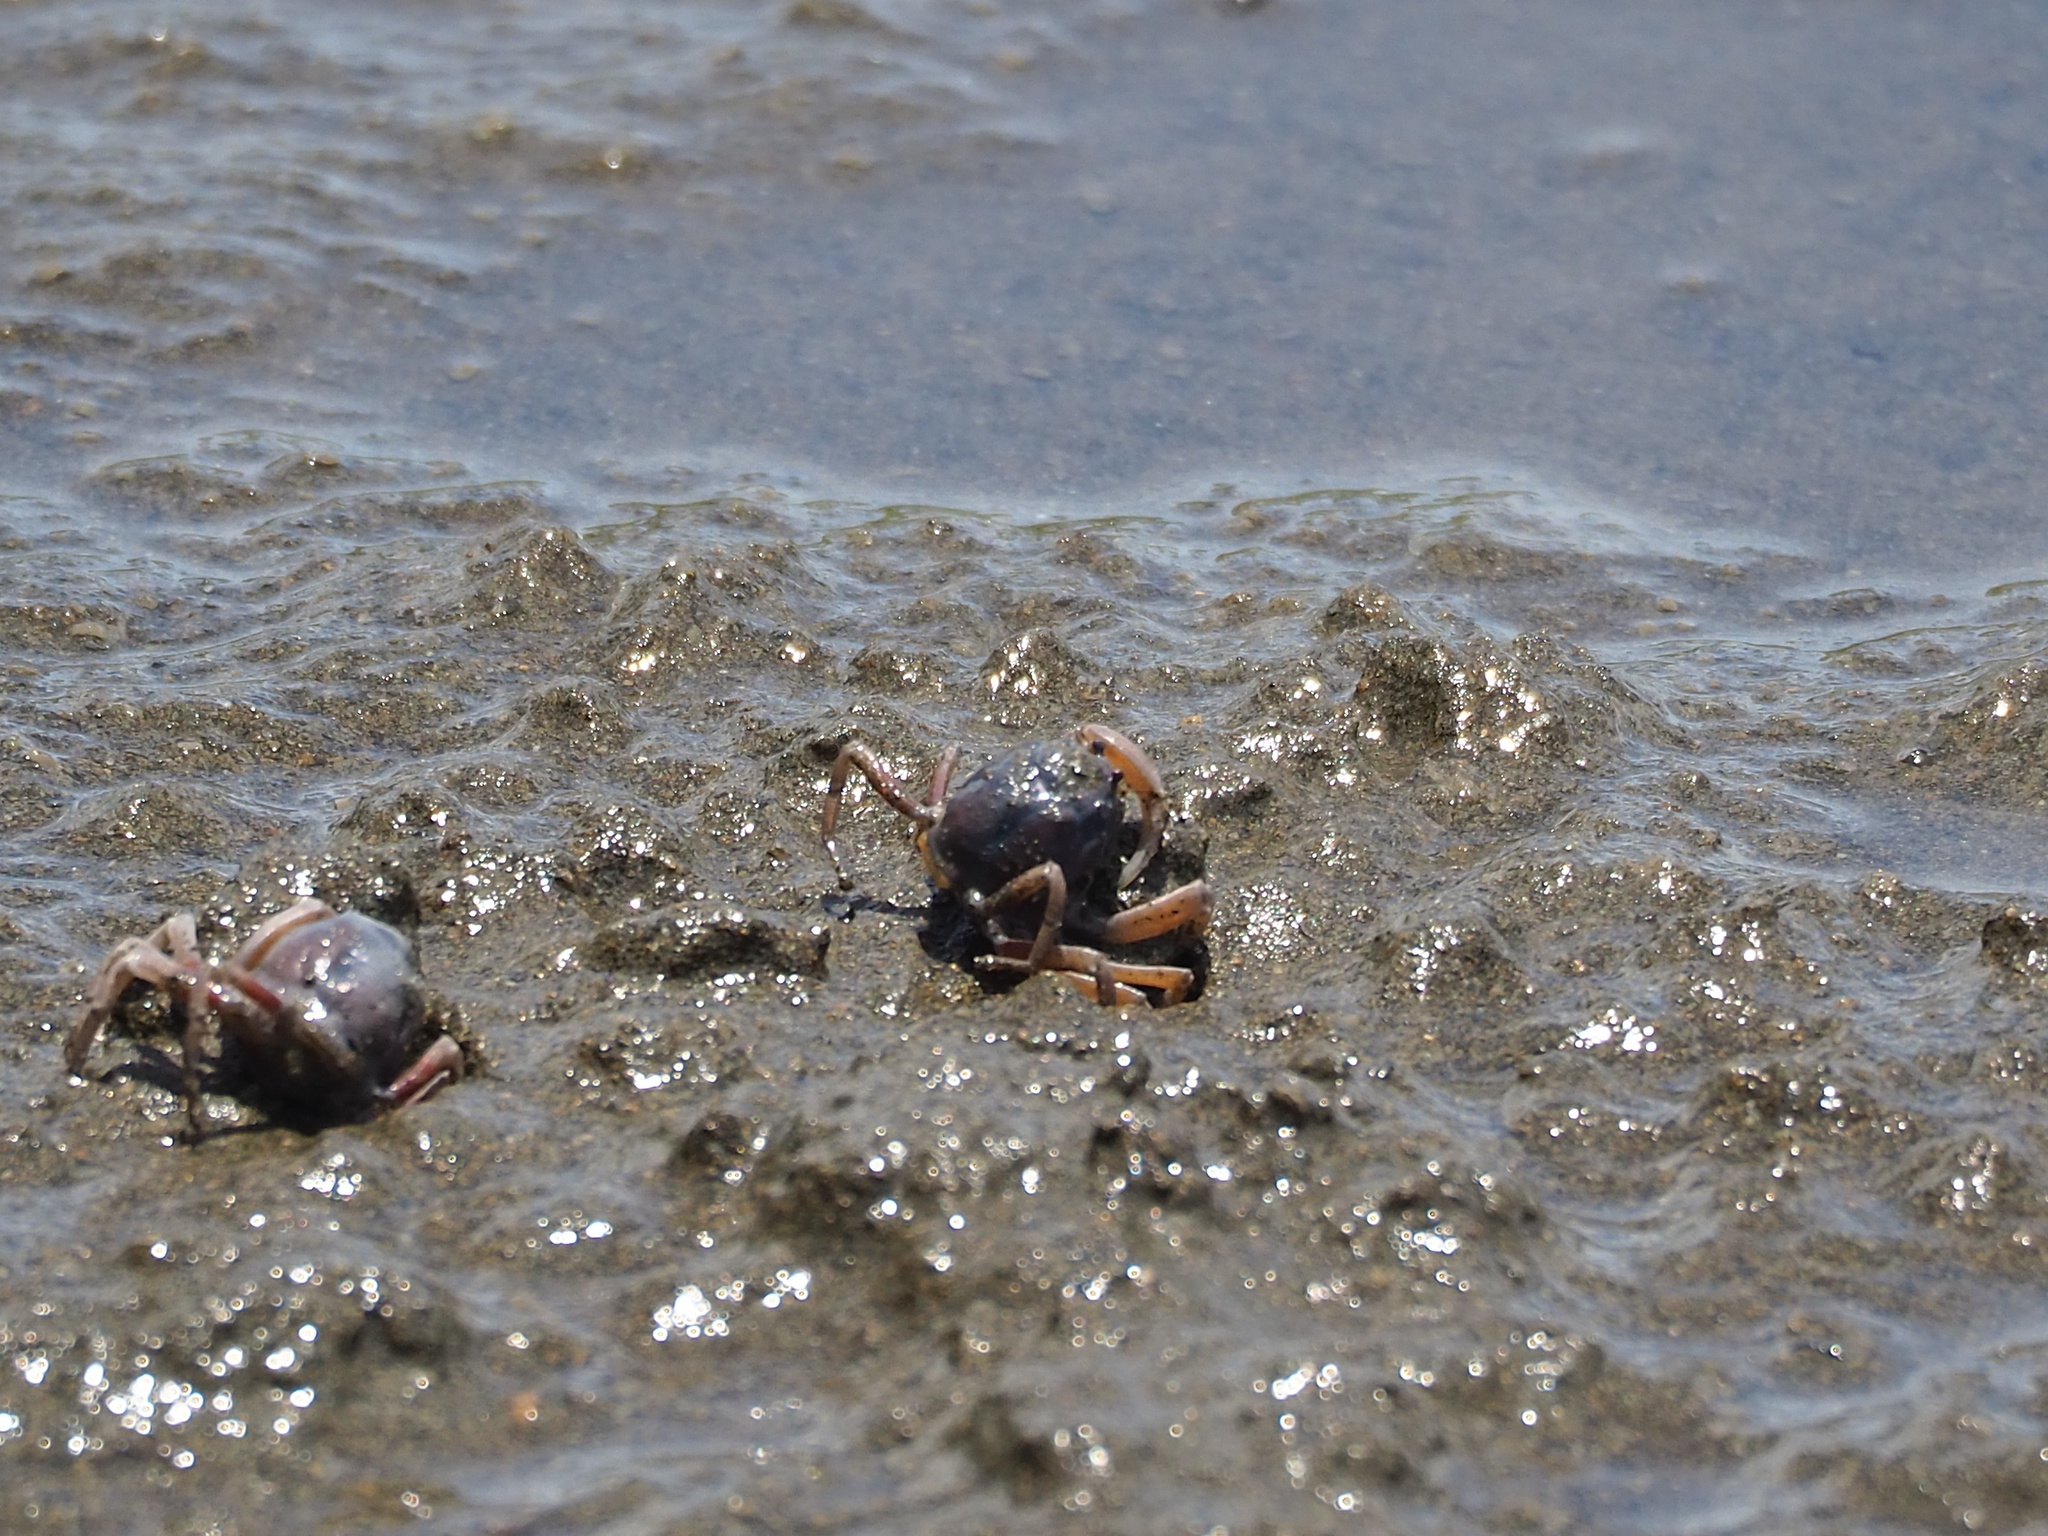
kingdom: Animalia
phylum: Arthropoda
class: Malacostraca
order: Decapoda
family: Mictyridae
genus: Mictyris
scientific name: Mictyris brevidactylus
